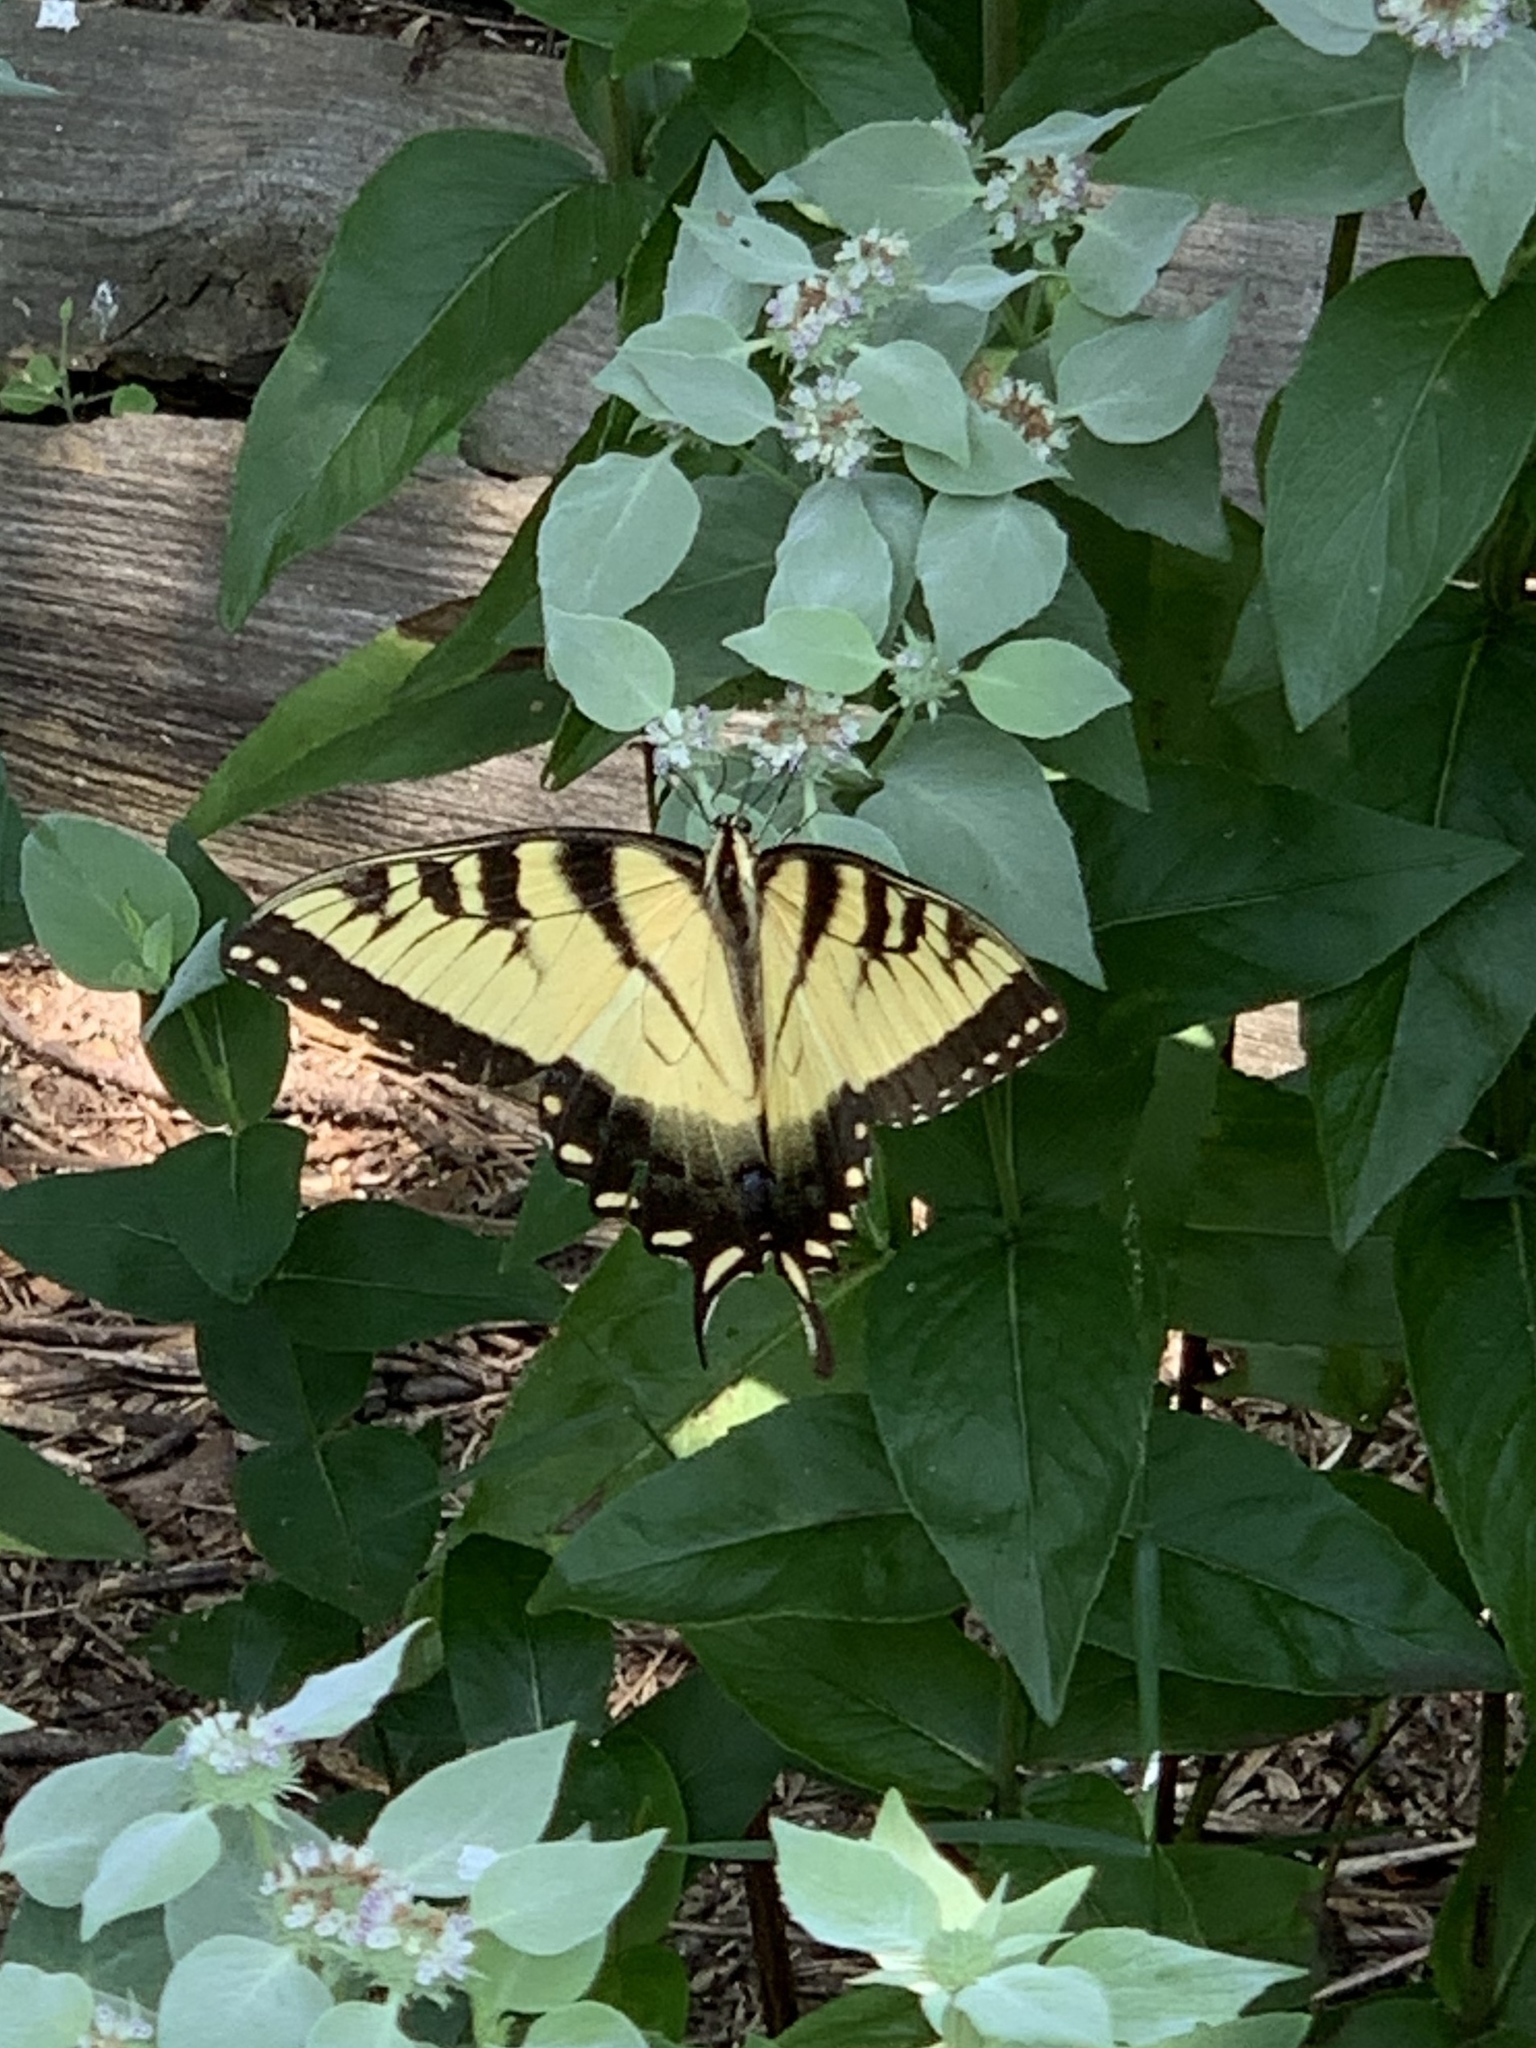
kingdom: Animalia
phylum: Arthropoda
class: Insecta
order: Lepidoptera
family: Papilionidae
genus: Papilio
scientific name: Papilio glaucus
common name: Tiger swallowtail
